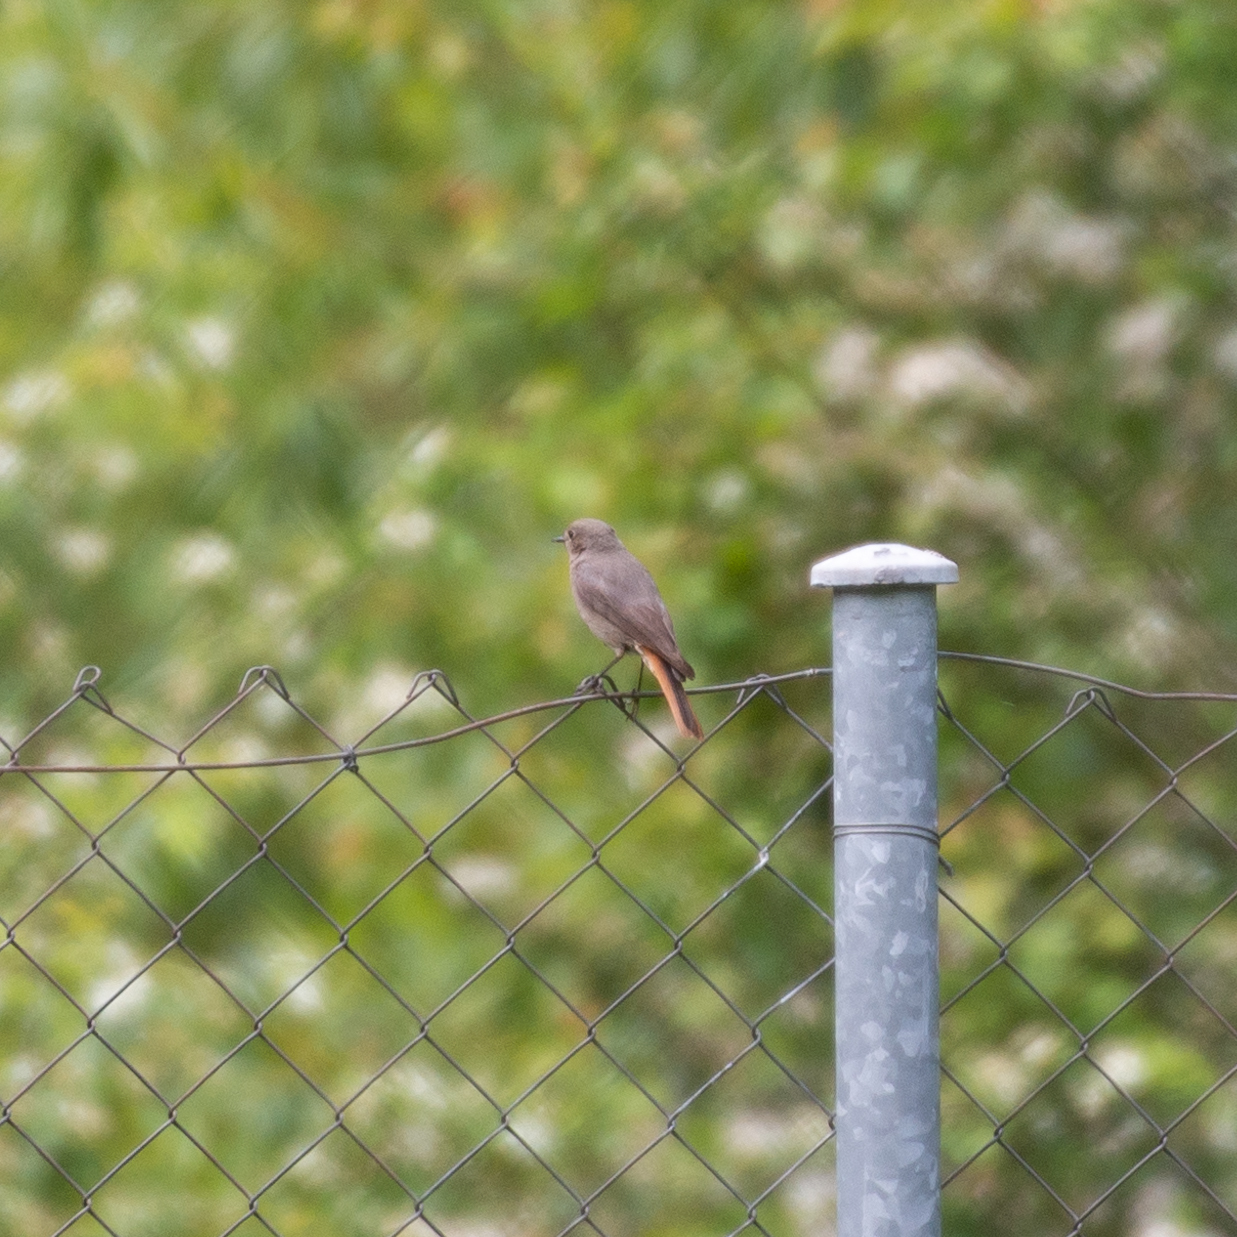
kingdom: Animalia
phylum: Chordata
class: Aves
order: Passeriformes
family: Muscicapidae
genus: Phoenicurus
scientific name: Phoenicurus ochruros
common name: Black redstart
